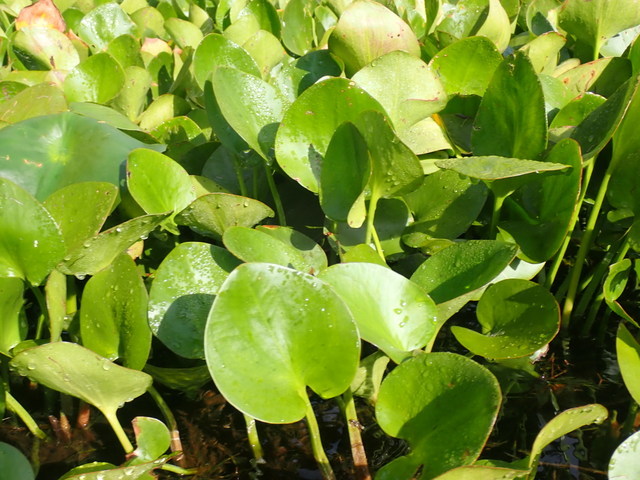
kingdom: Plantae
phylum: Tracheophyta
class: Liliopsida
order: Alismatales
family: Hydrocharitaceae
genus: Hydrocharis
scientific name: Hydrocharis spongia
